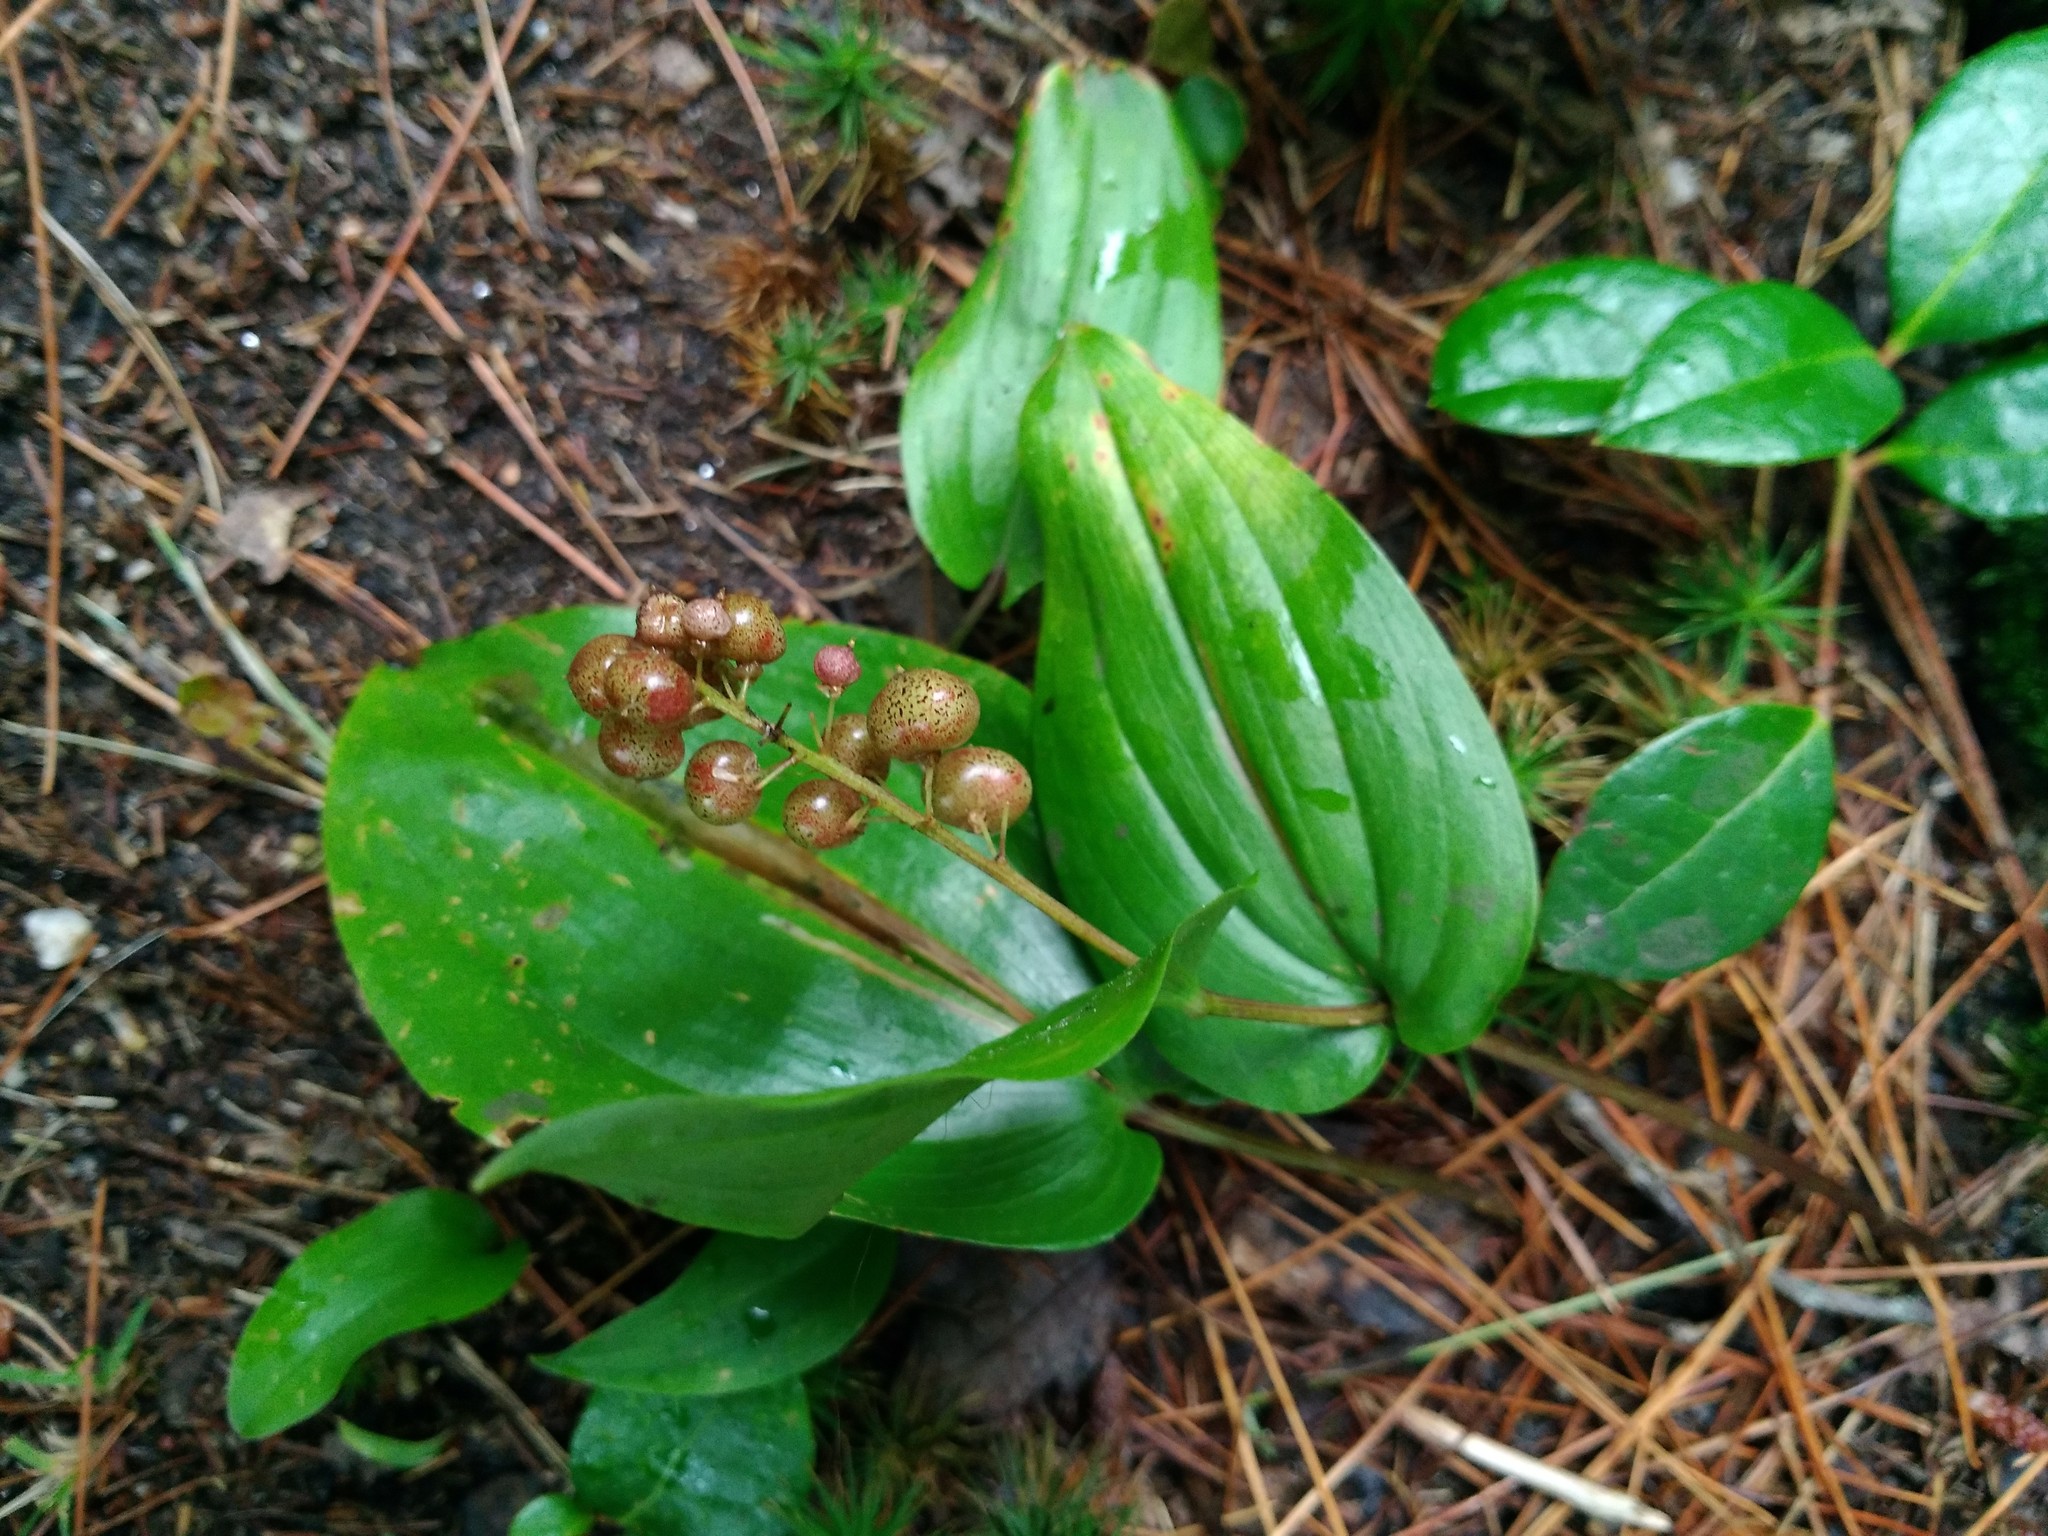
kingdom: Plantae
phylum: Tracheophyta
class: Liliopsida
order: Asparagales
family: Asparagaceae
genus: Maianthemum
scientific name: Maianthemum canadense
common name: False lily-of-the-valley
